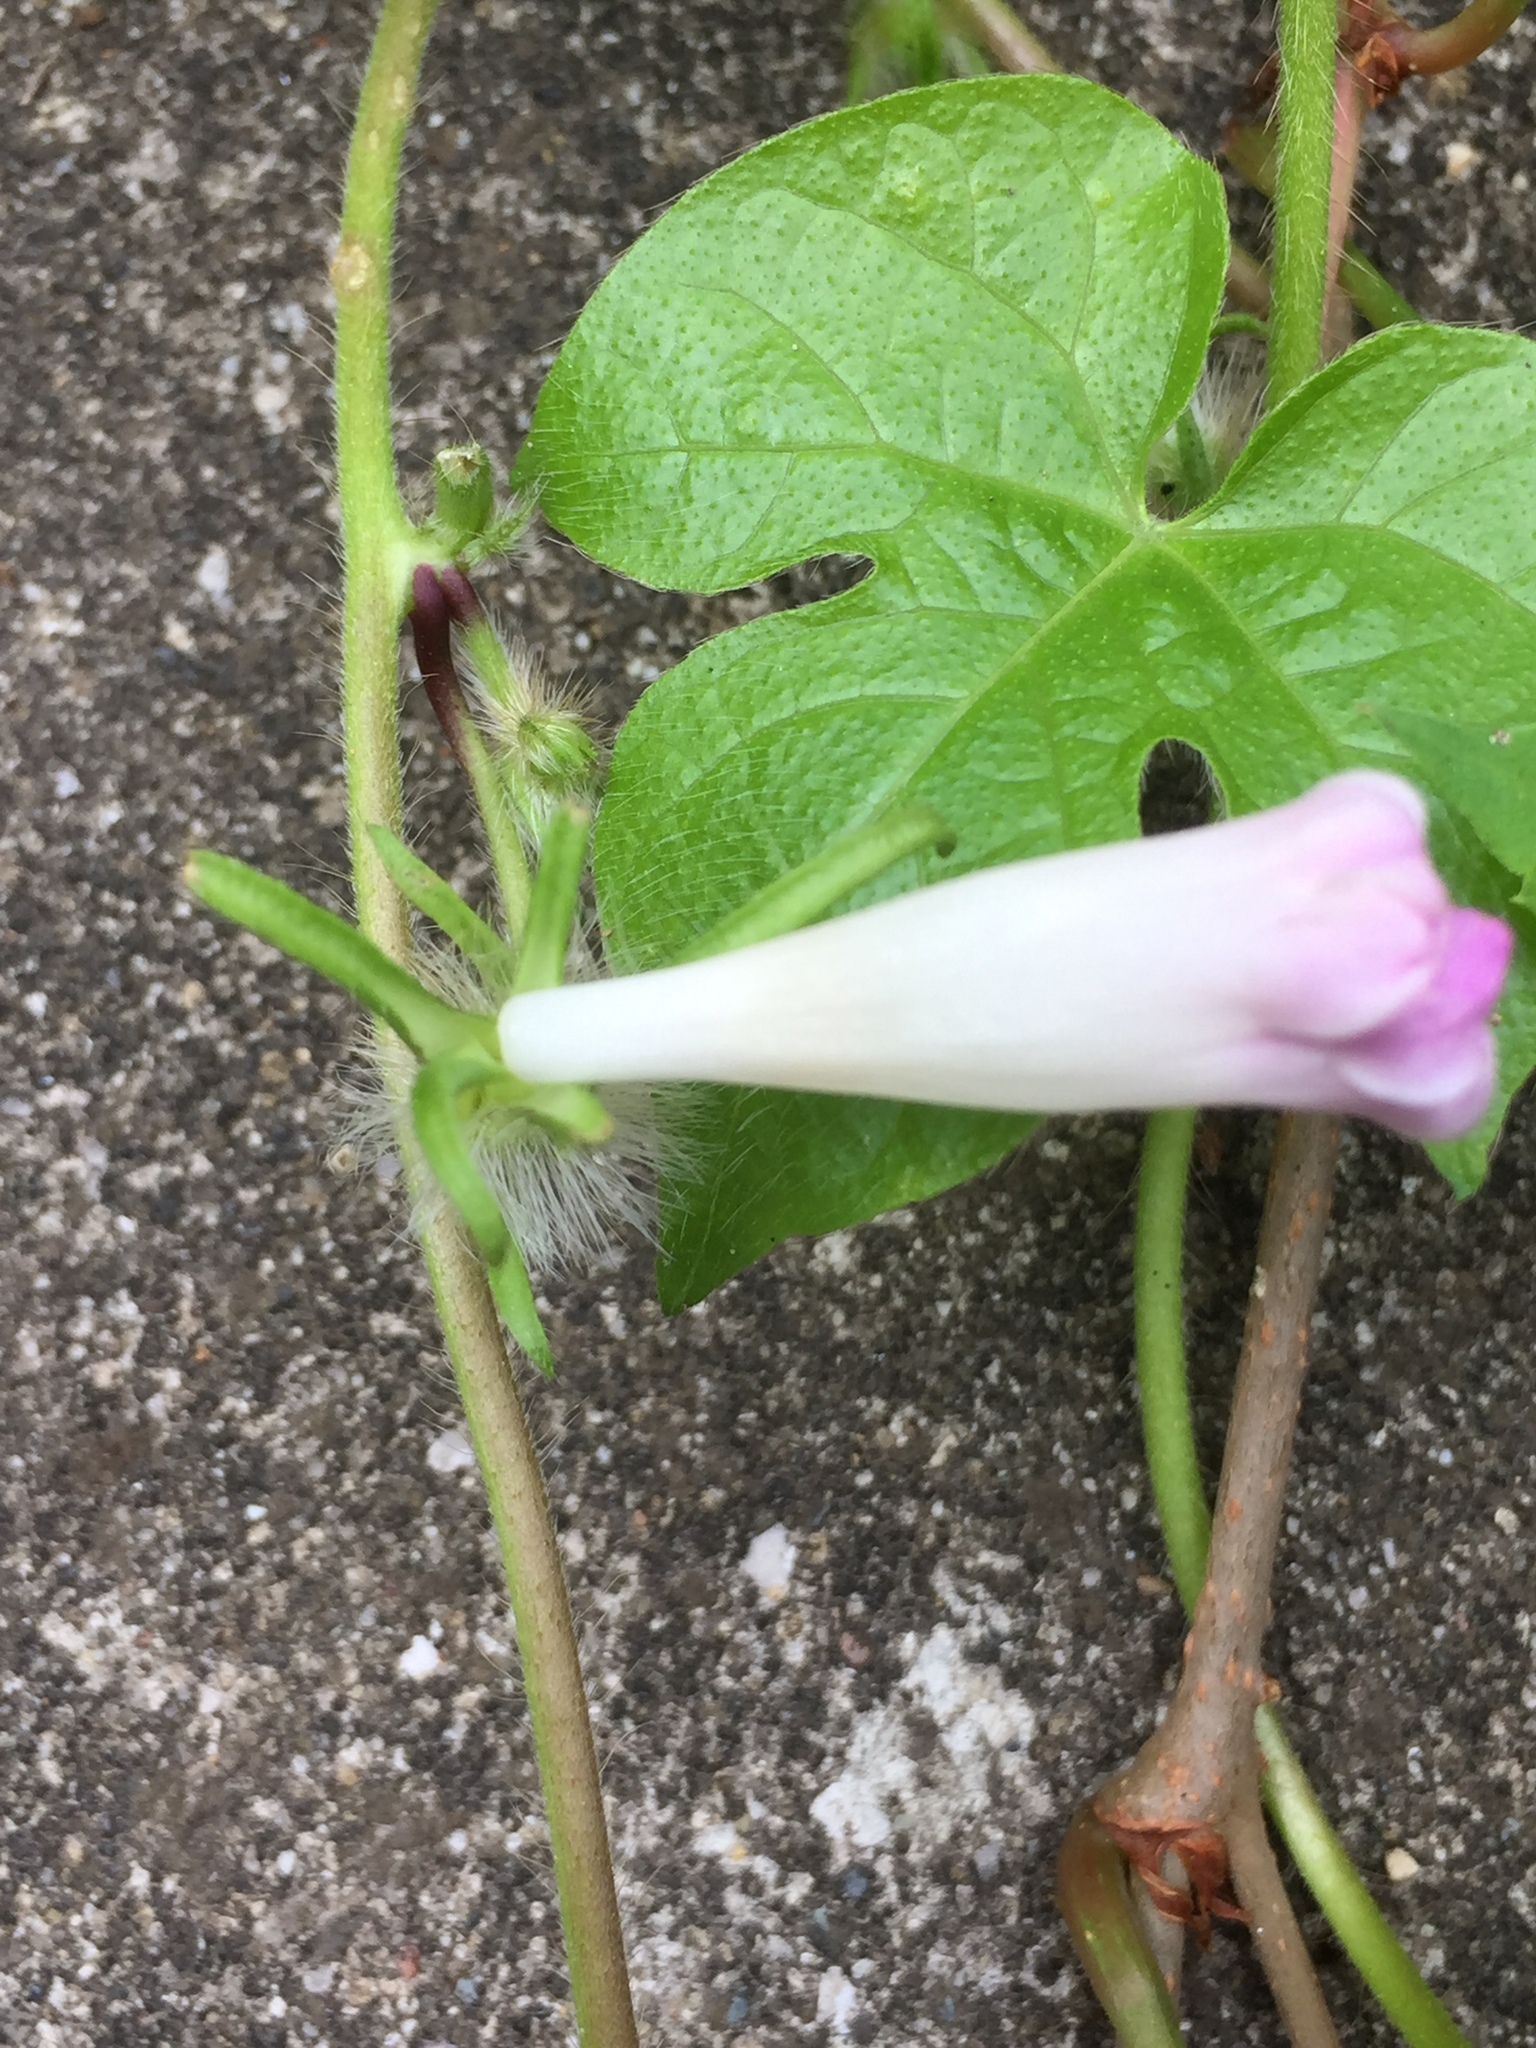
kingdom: Plantae
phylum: Tracheophyta
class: Magnoliopsida
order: Solanales
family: Convolvulaceae
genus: Ipomoea
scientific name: Ipomoea hederacea
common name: Ivy-leaved morning-glory
